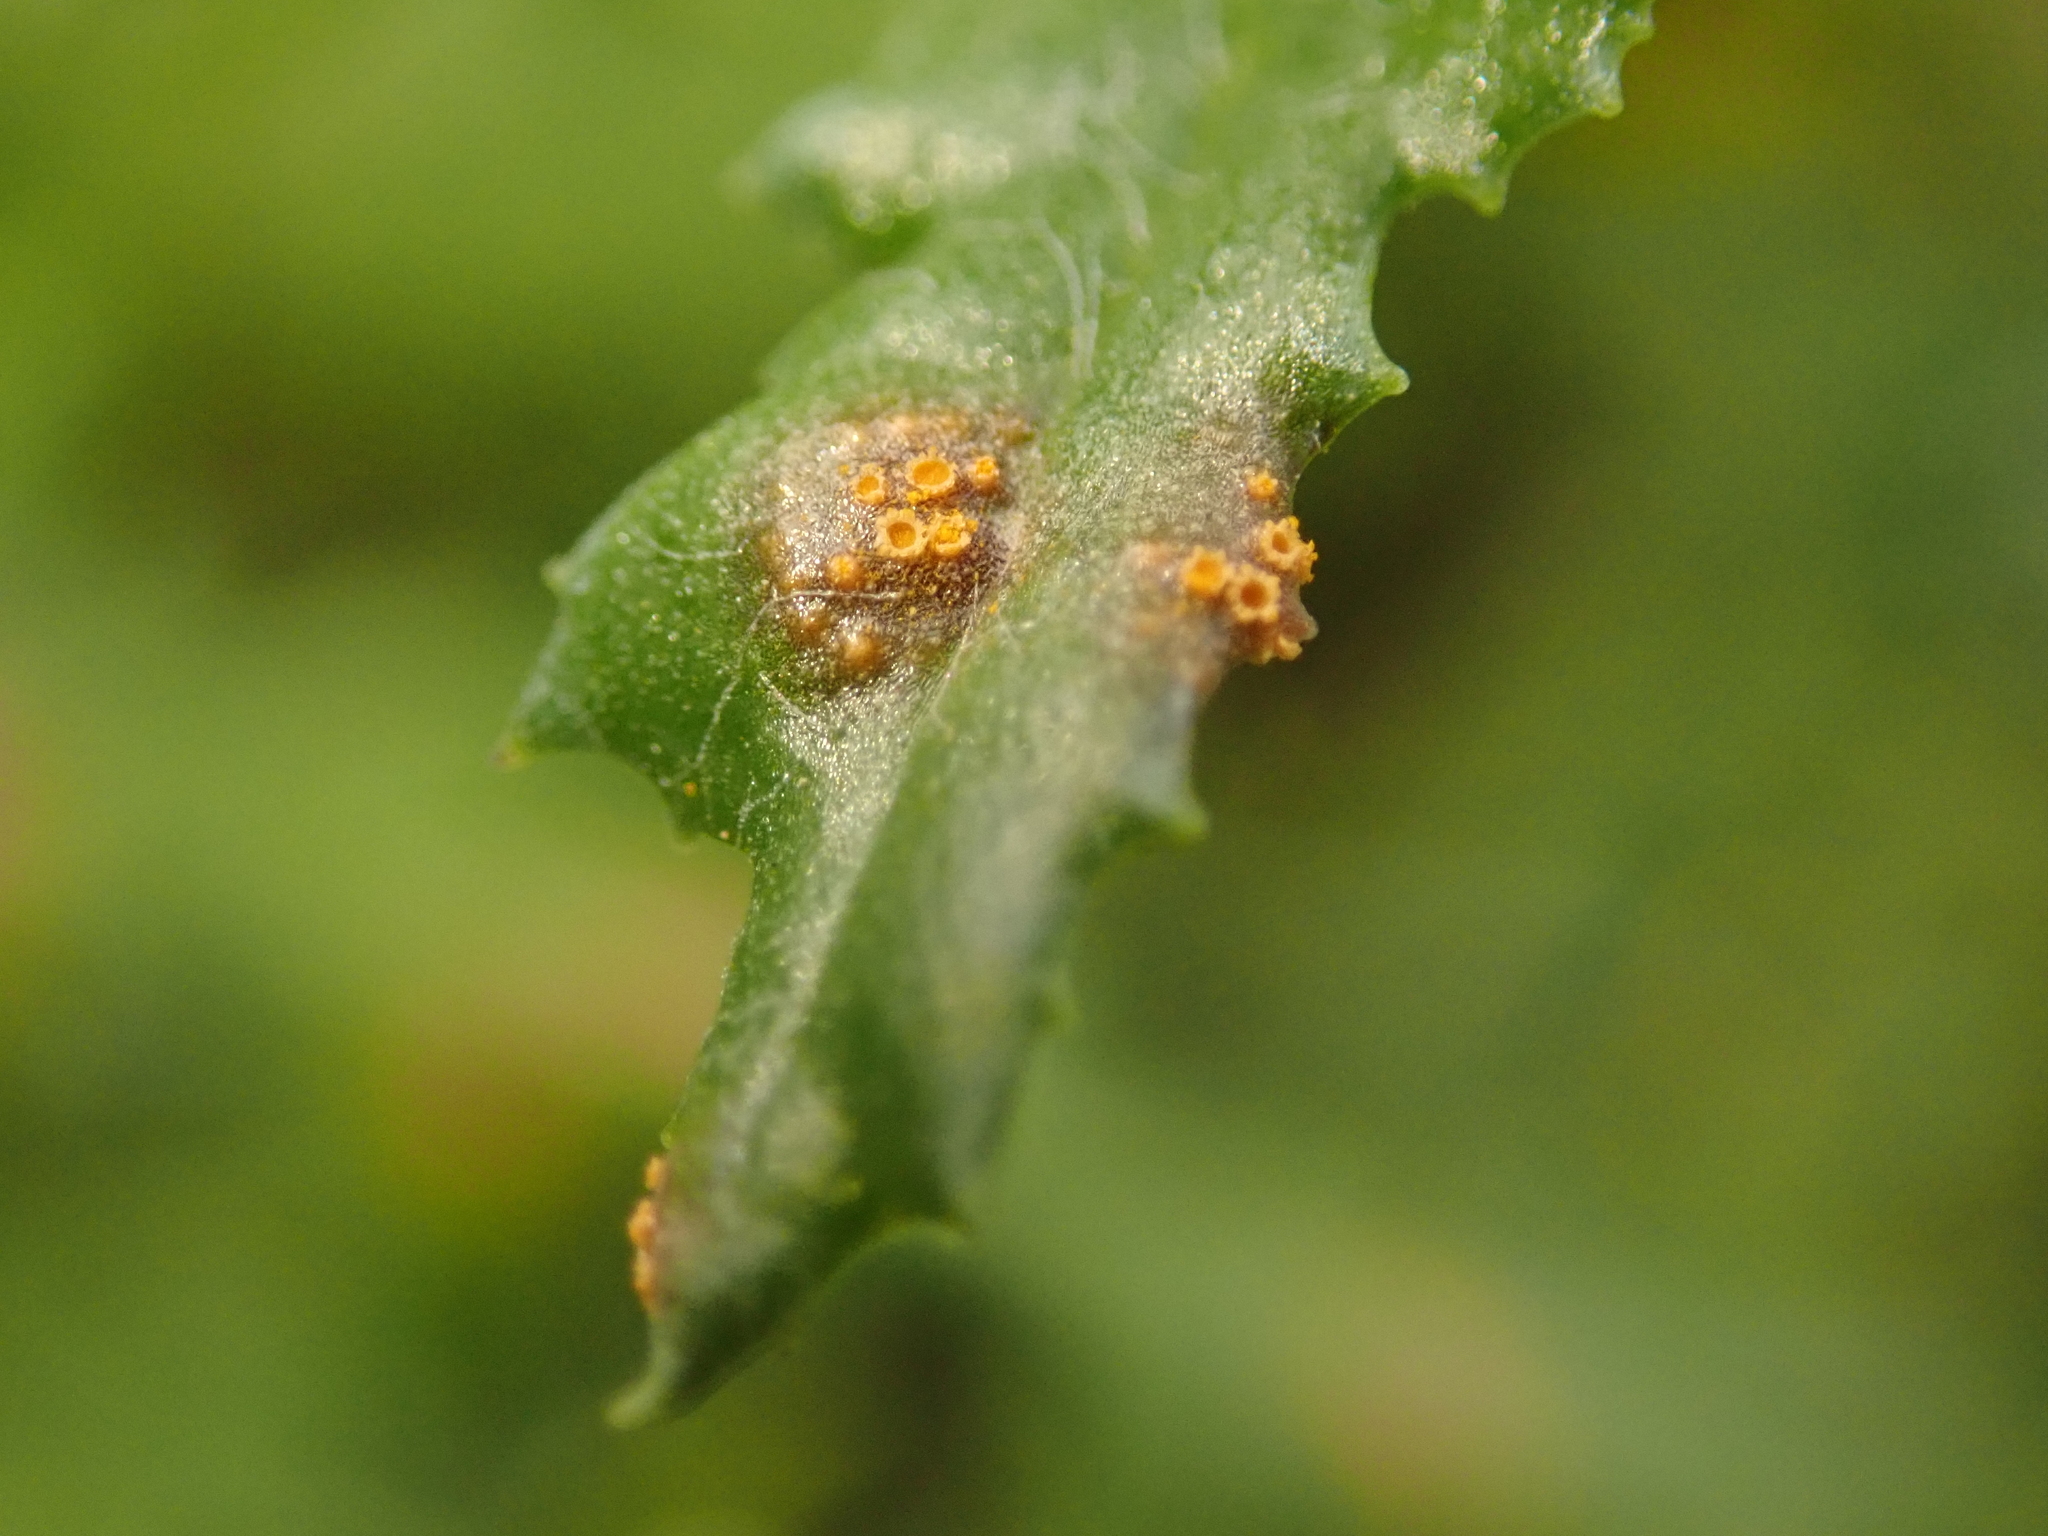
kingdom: Fungi
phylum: Basidiomycota
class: Pucciniomycetes
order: Pucciniales
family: Pucciniaceae
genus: Puccinia
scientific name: Puccinia lagenophorae
